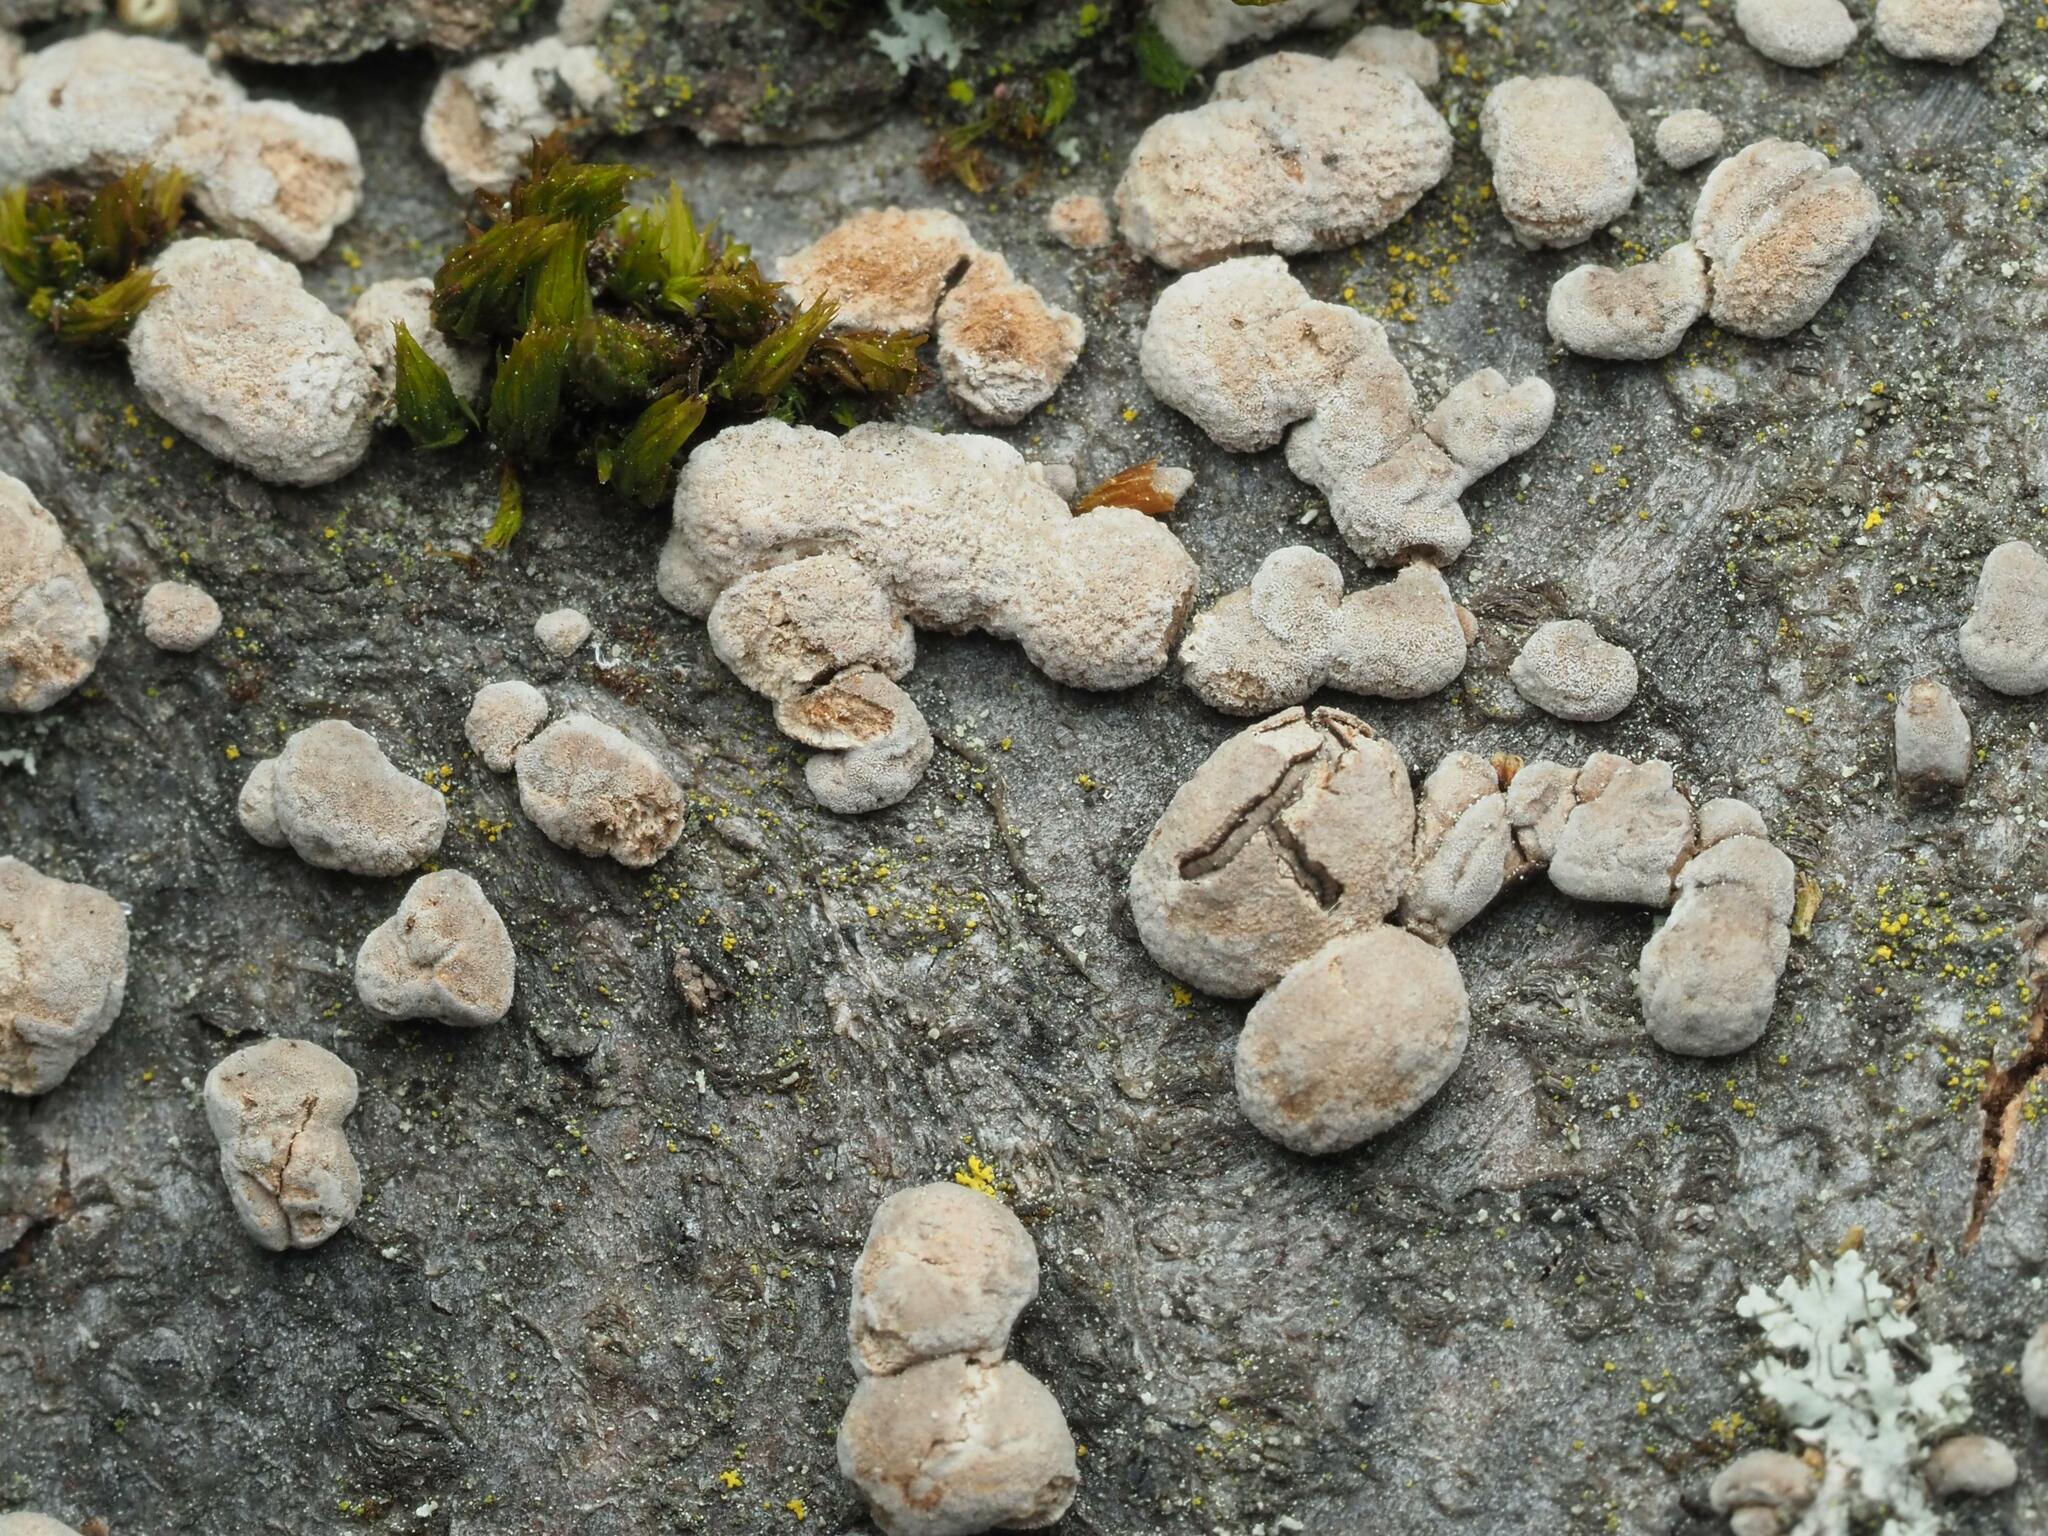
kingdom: Fungi
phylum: Ascomycota
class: Sordariomycetes
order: Xylariales
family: Hypoxylaceae
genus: Hypoxylon
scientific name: Hypoxylon fragiforme
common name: Beech woodwart
